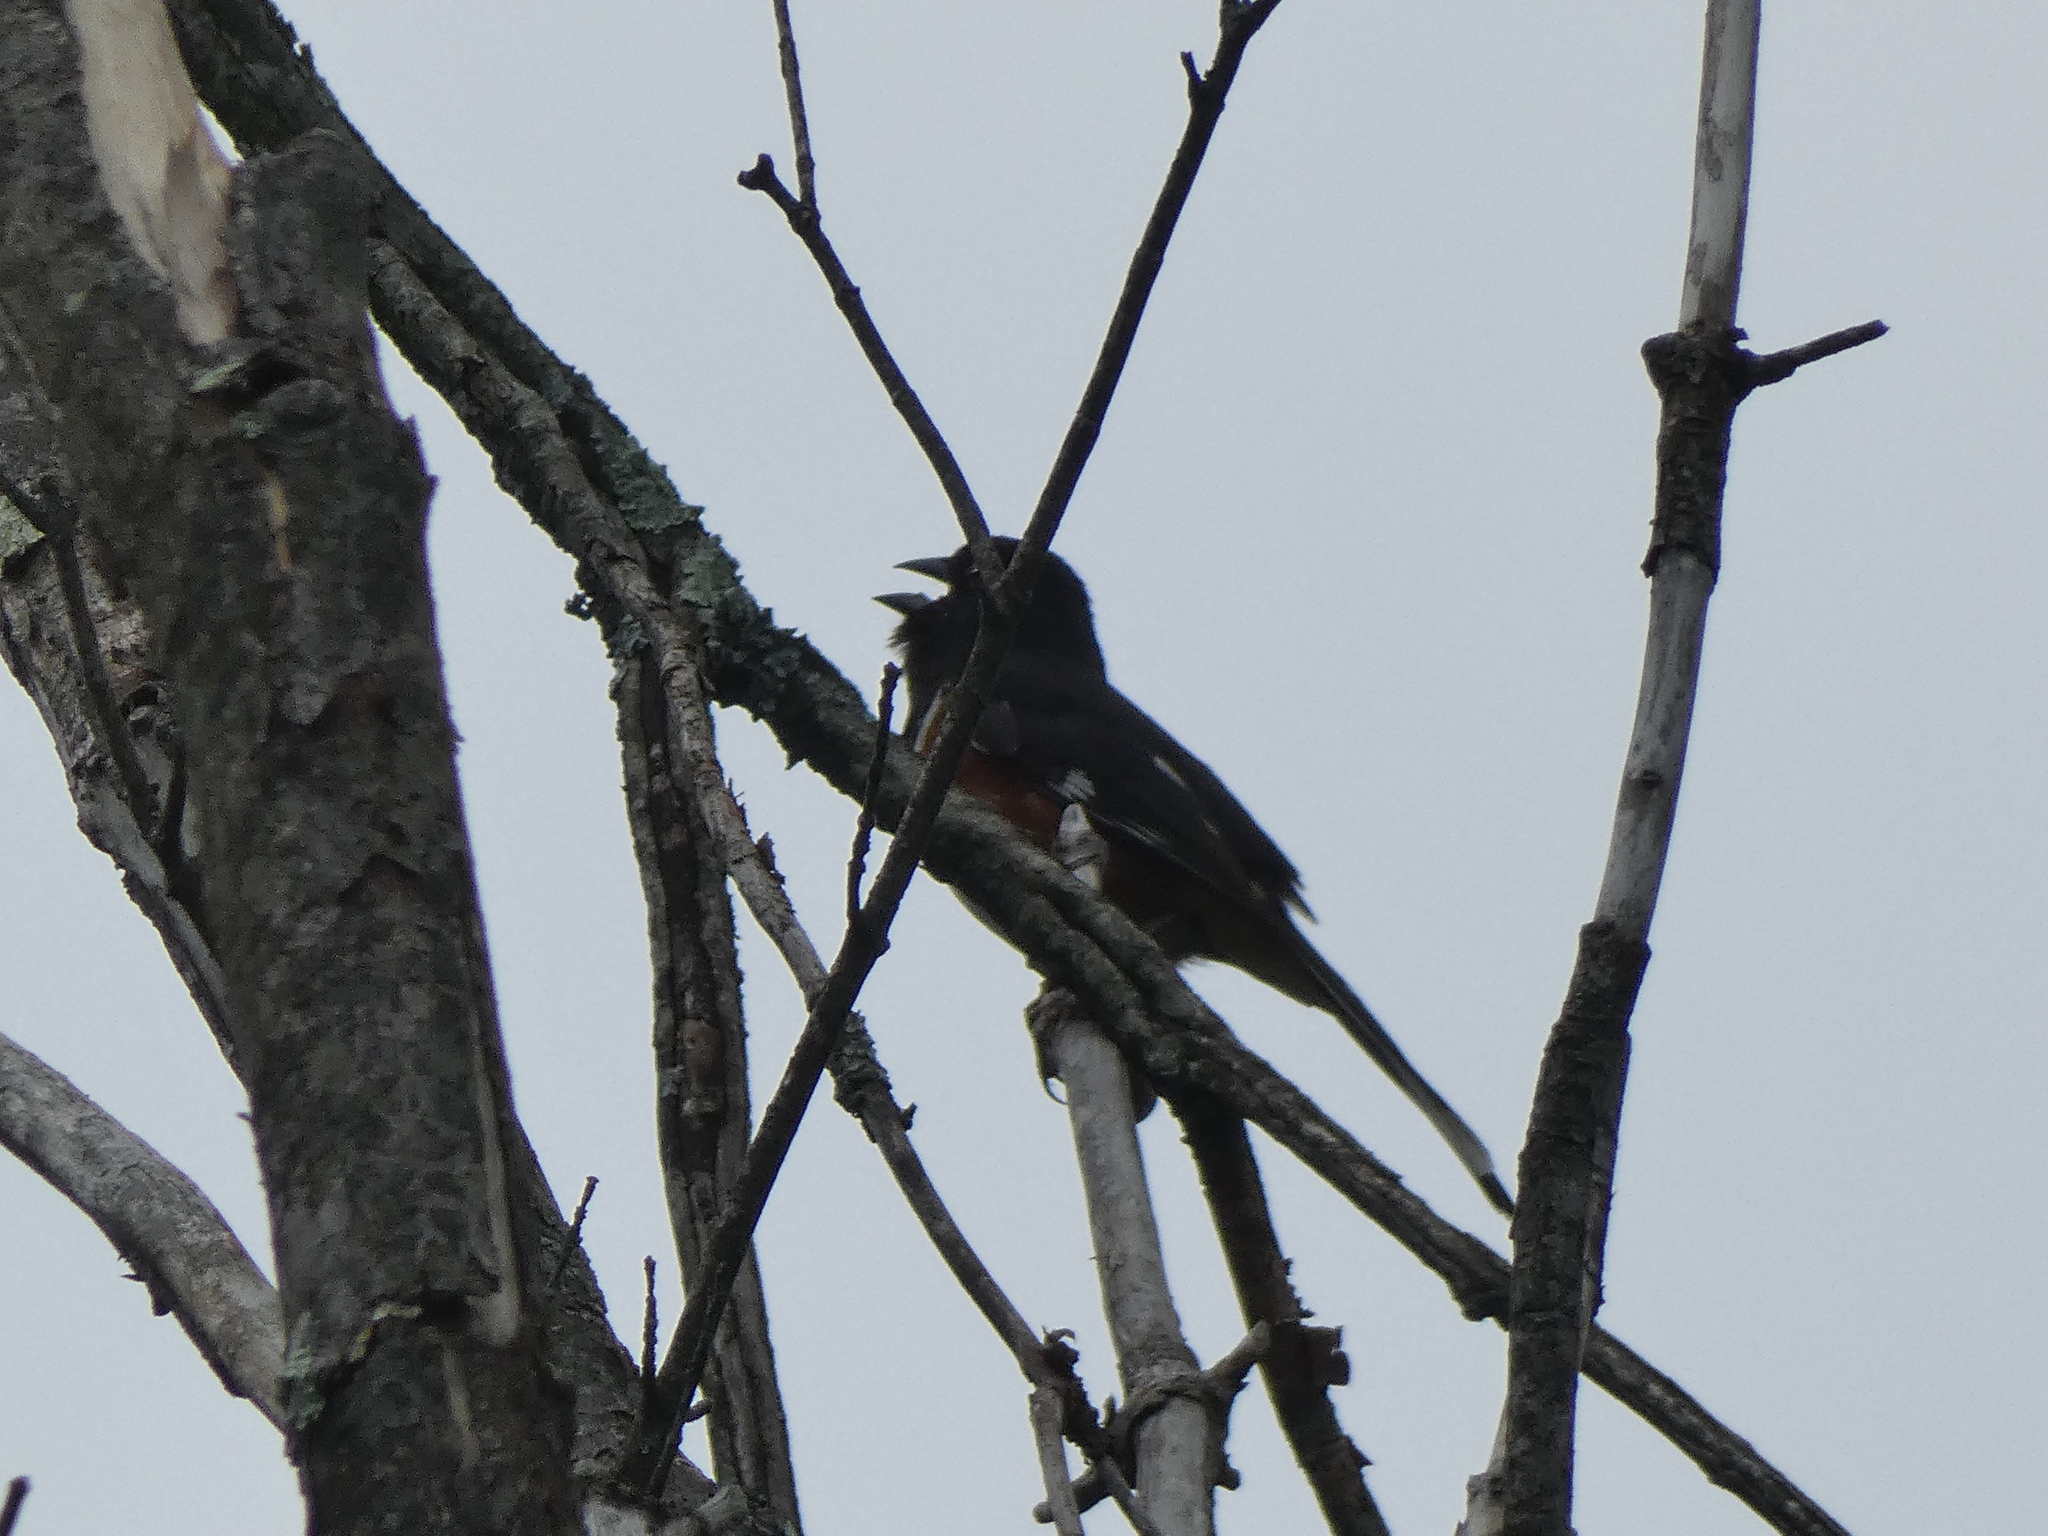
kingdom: Animalia
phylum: Chordata
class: Aves
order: Passeriformes
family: Passerellidae
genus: Pipilo
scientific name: Pipilo erythrophthalmus
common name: Eastern towhee
